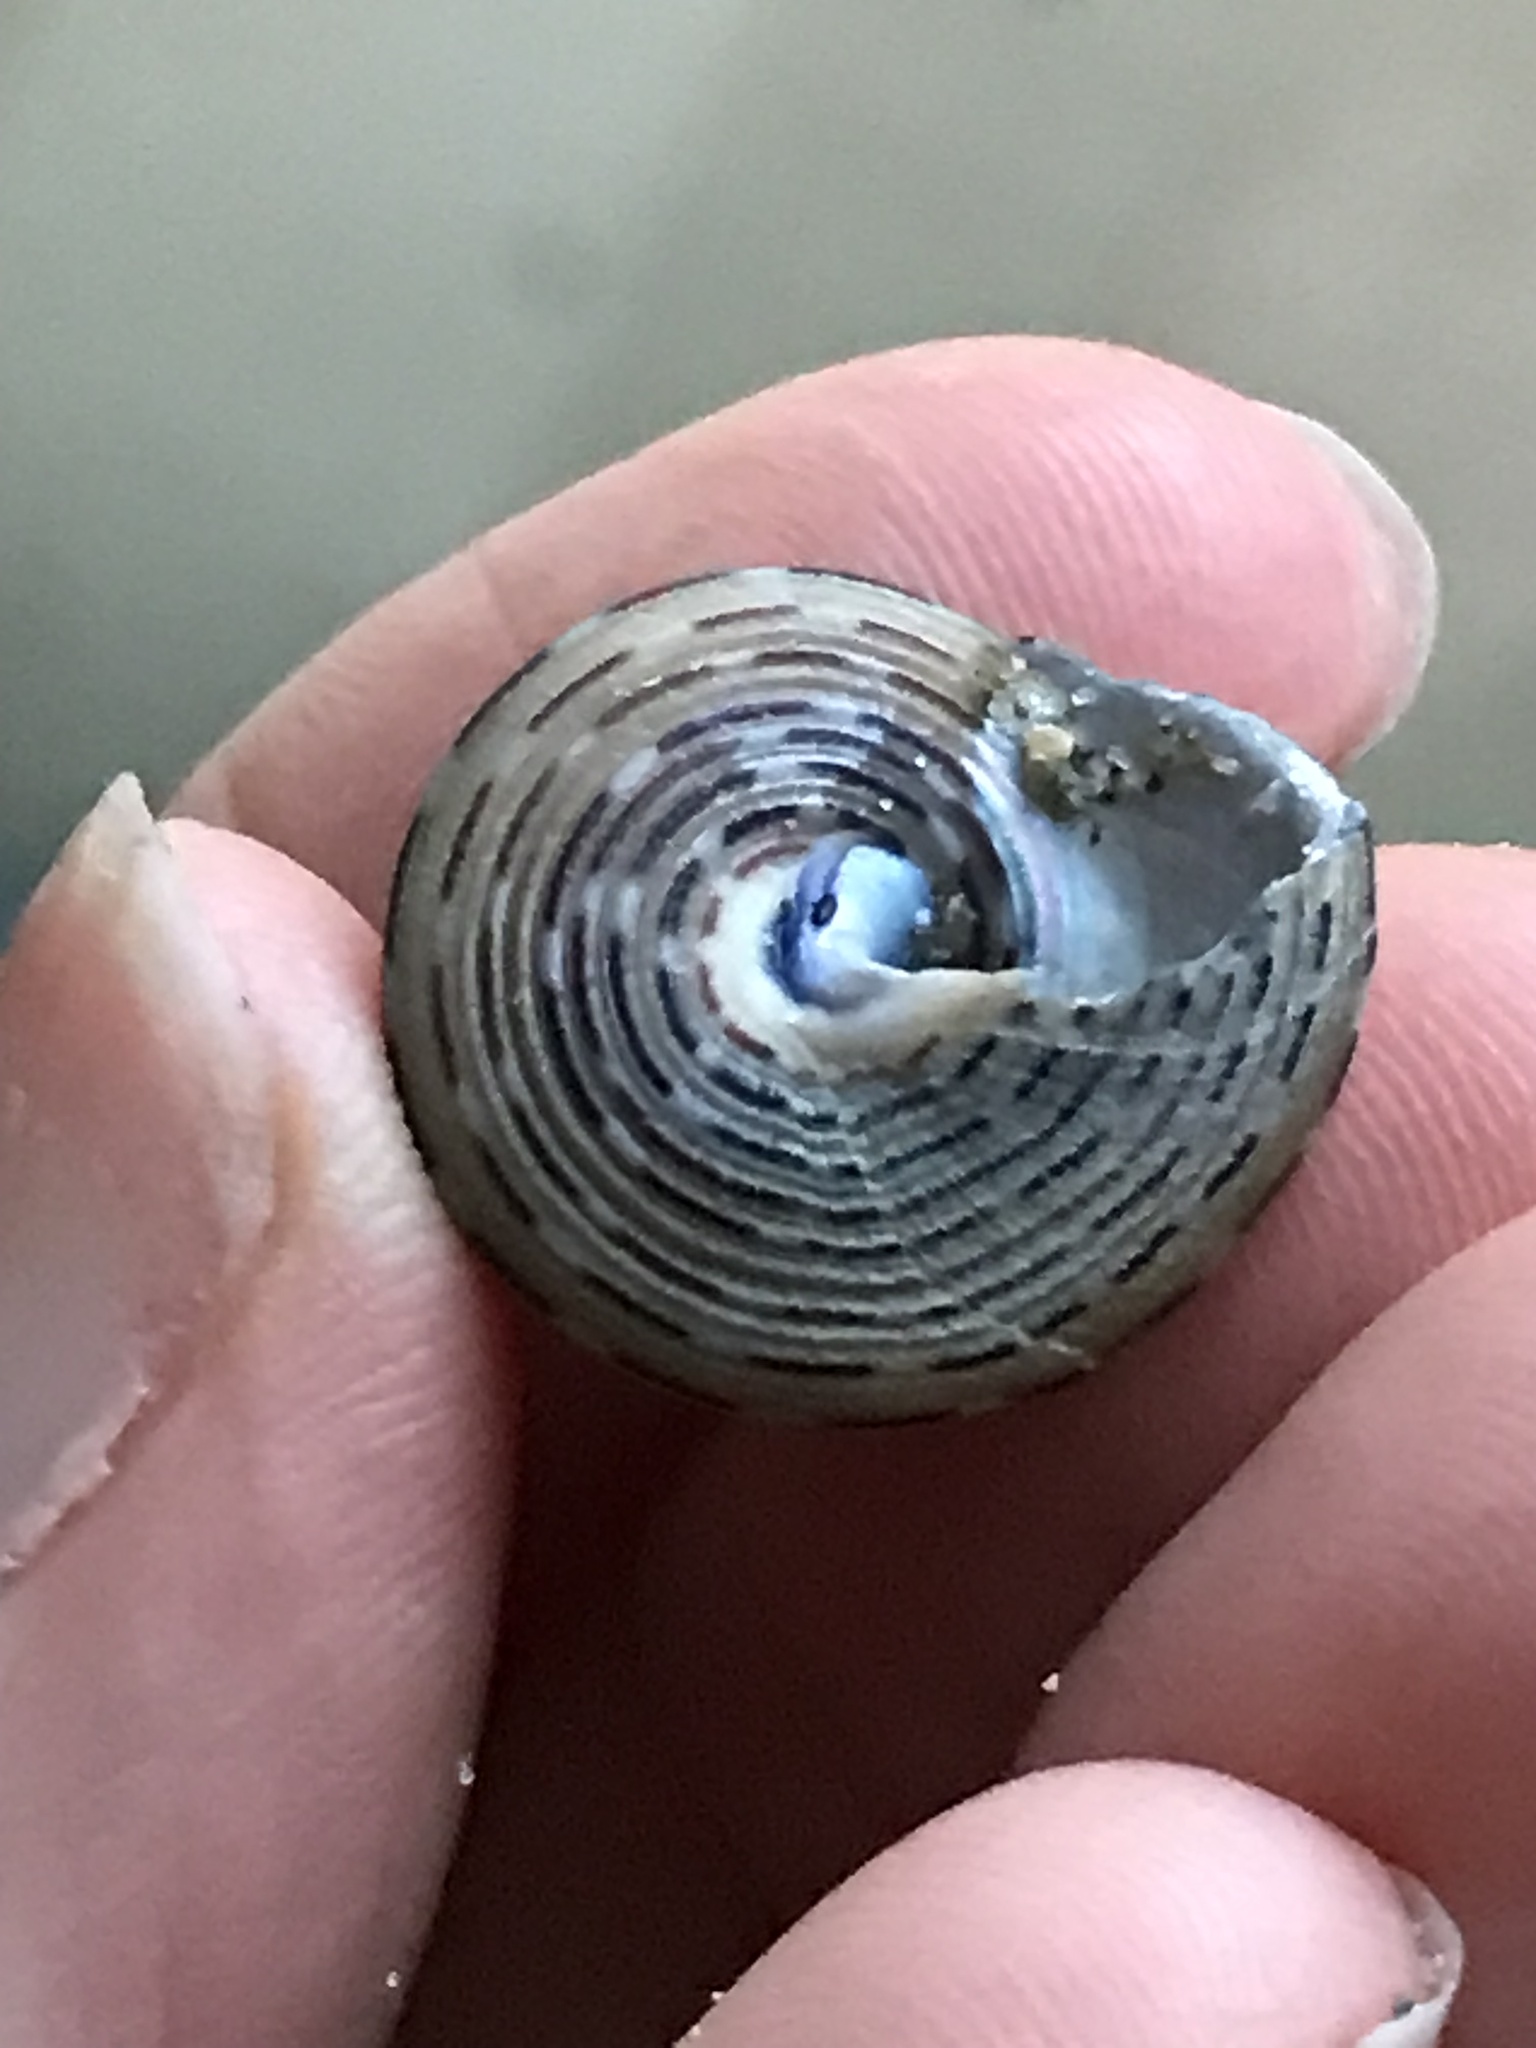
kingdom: Animalia
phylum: Mollusca
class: Gastropoda
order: Trochida
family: Calliostomatidae
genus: Calliostoma
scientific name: Calliostoma tricolor
